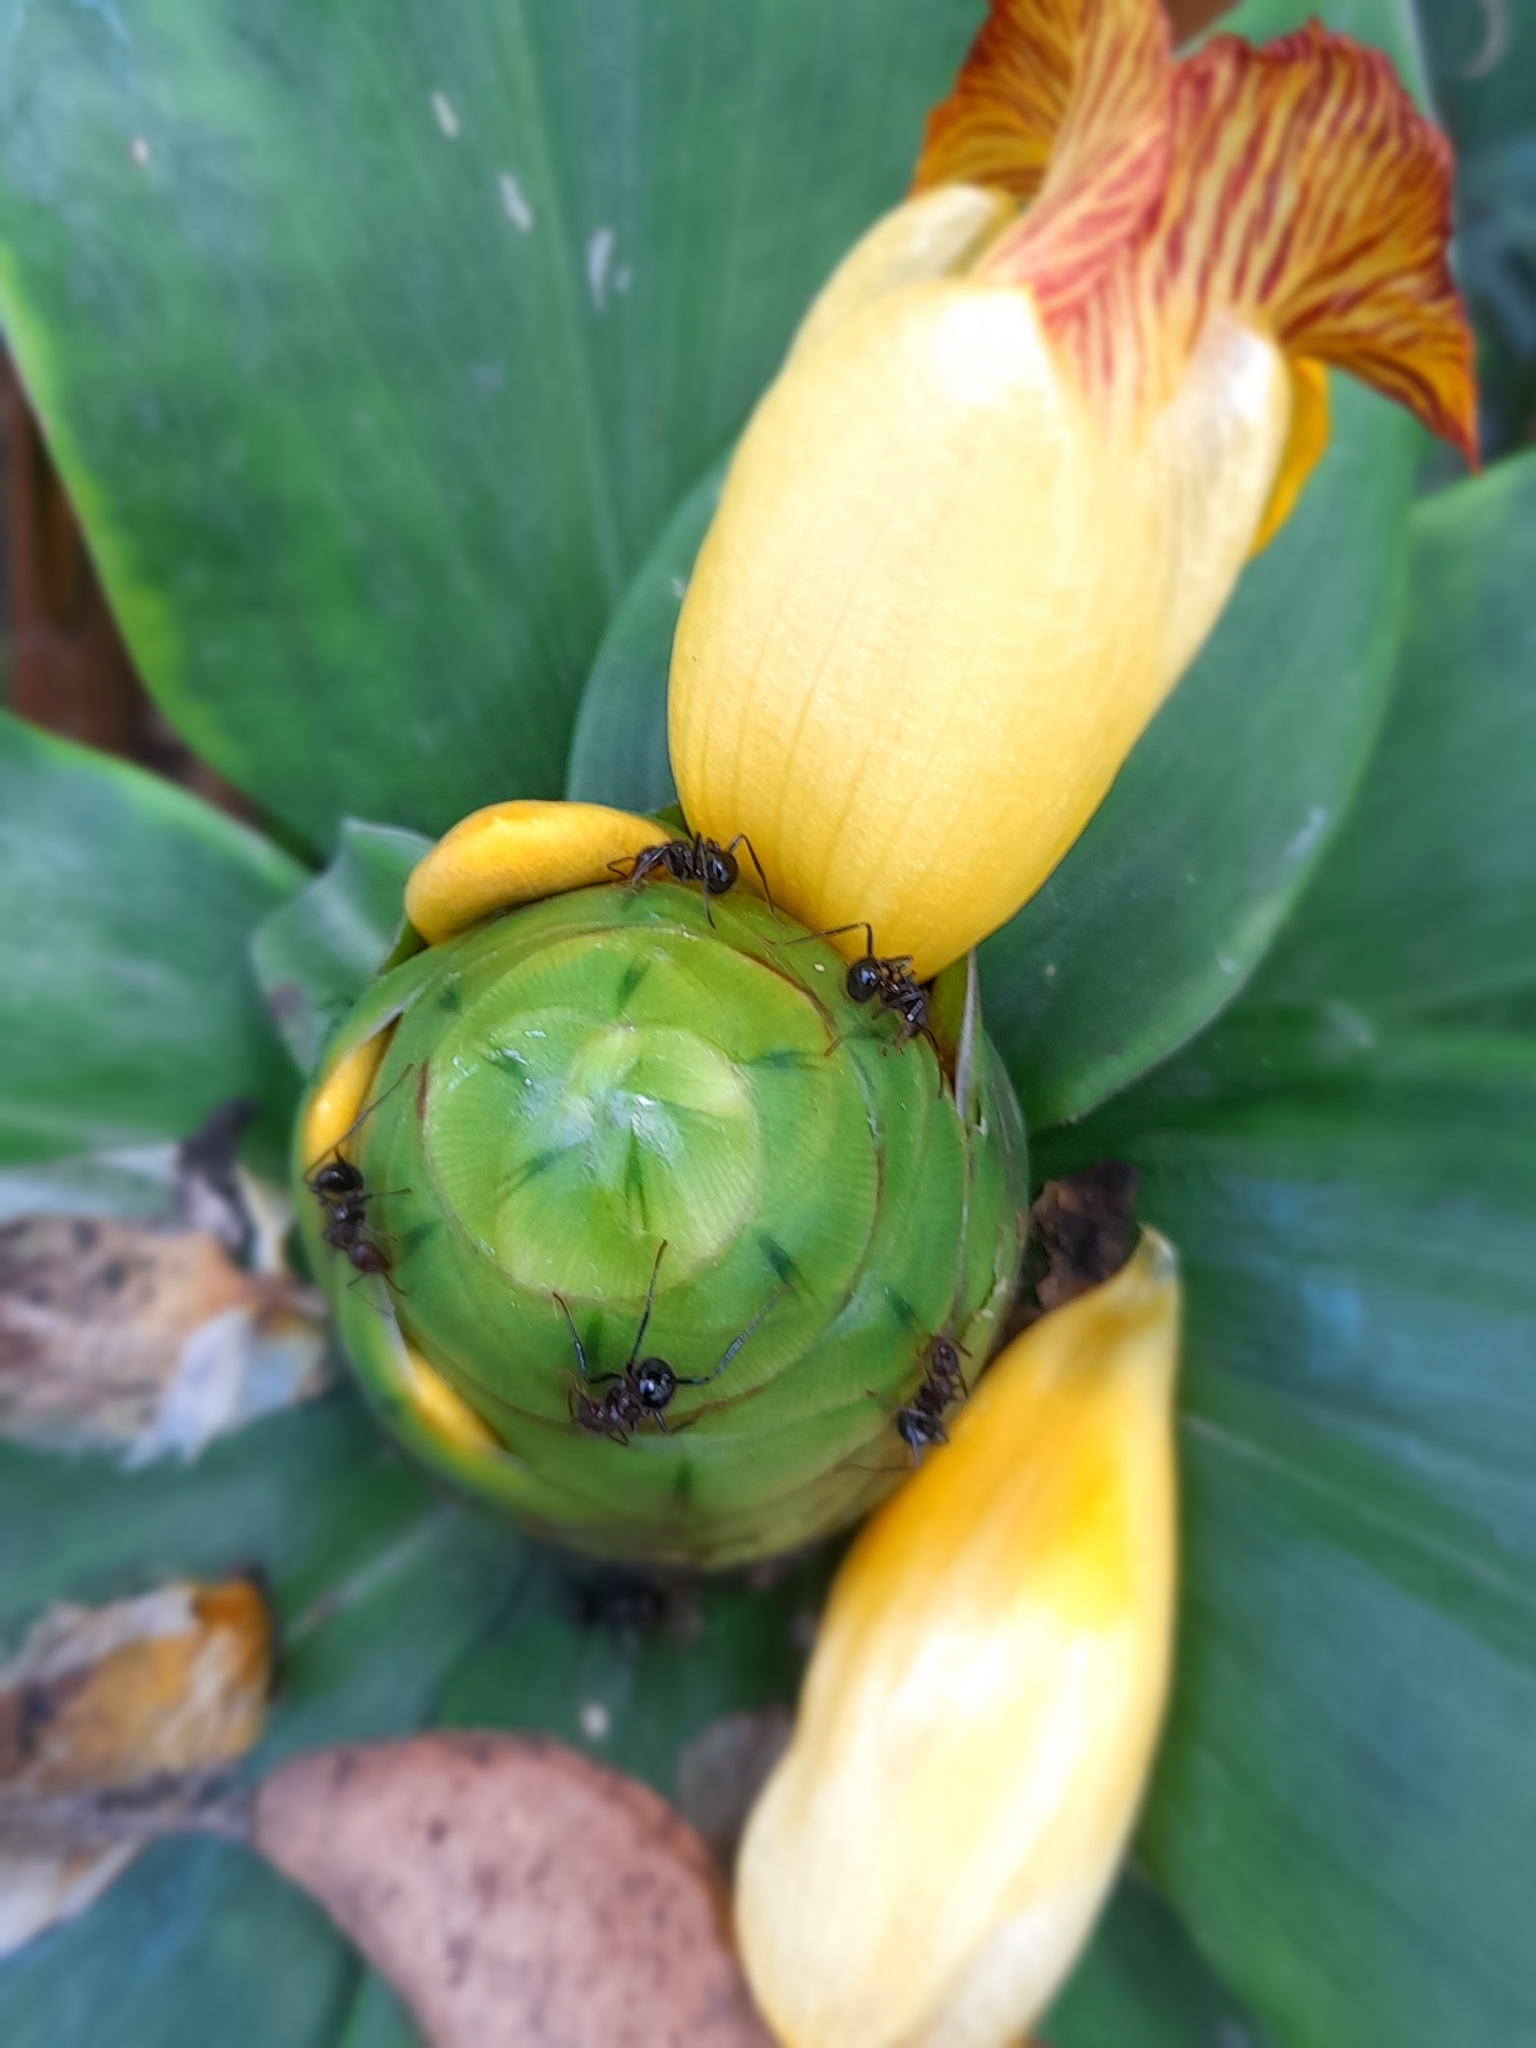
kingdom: Plantae
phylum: Tracheophyta
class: Liliopsida
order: Zingiberales
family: Costaceae
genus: Costus
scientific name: Costus pictus
